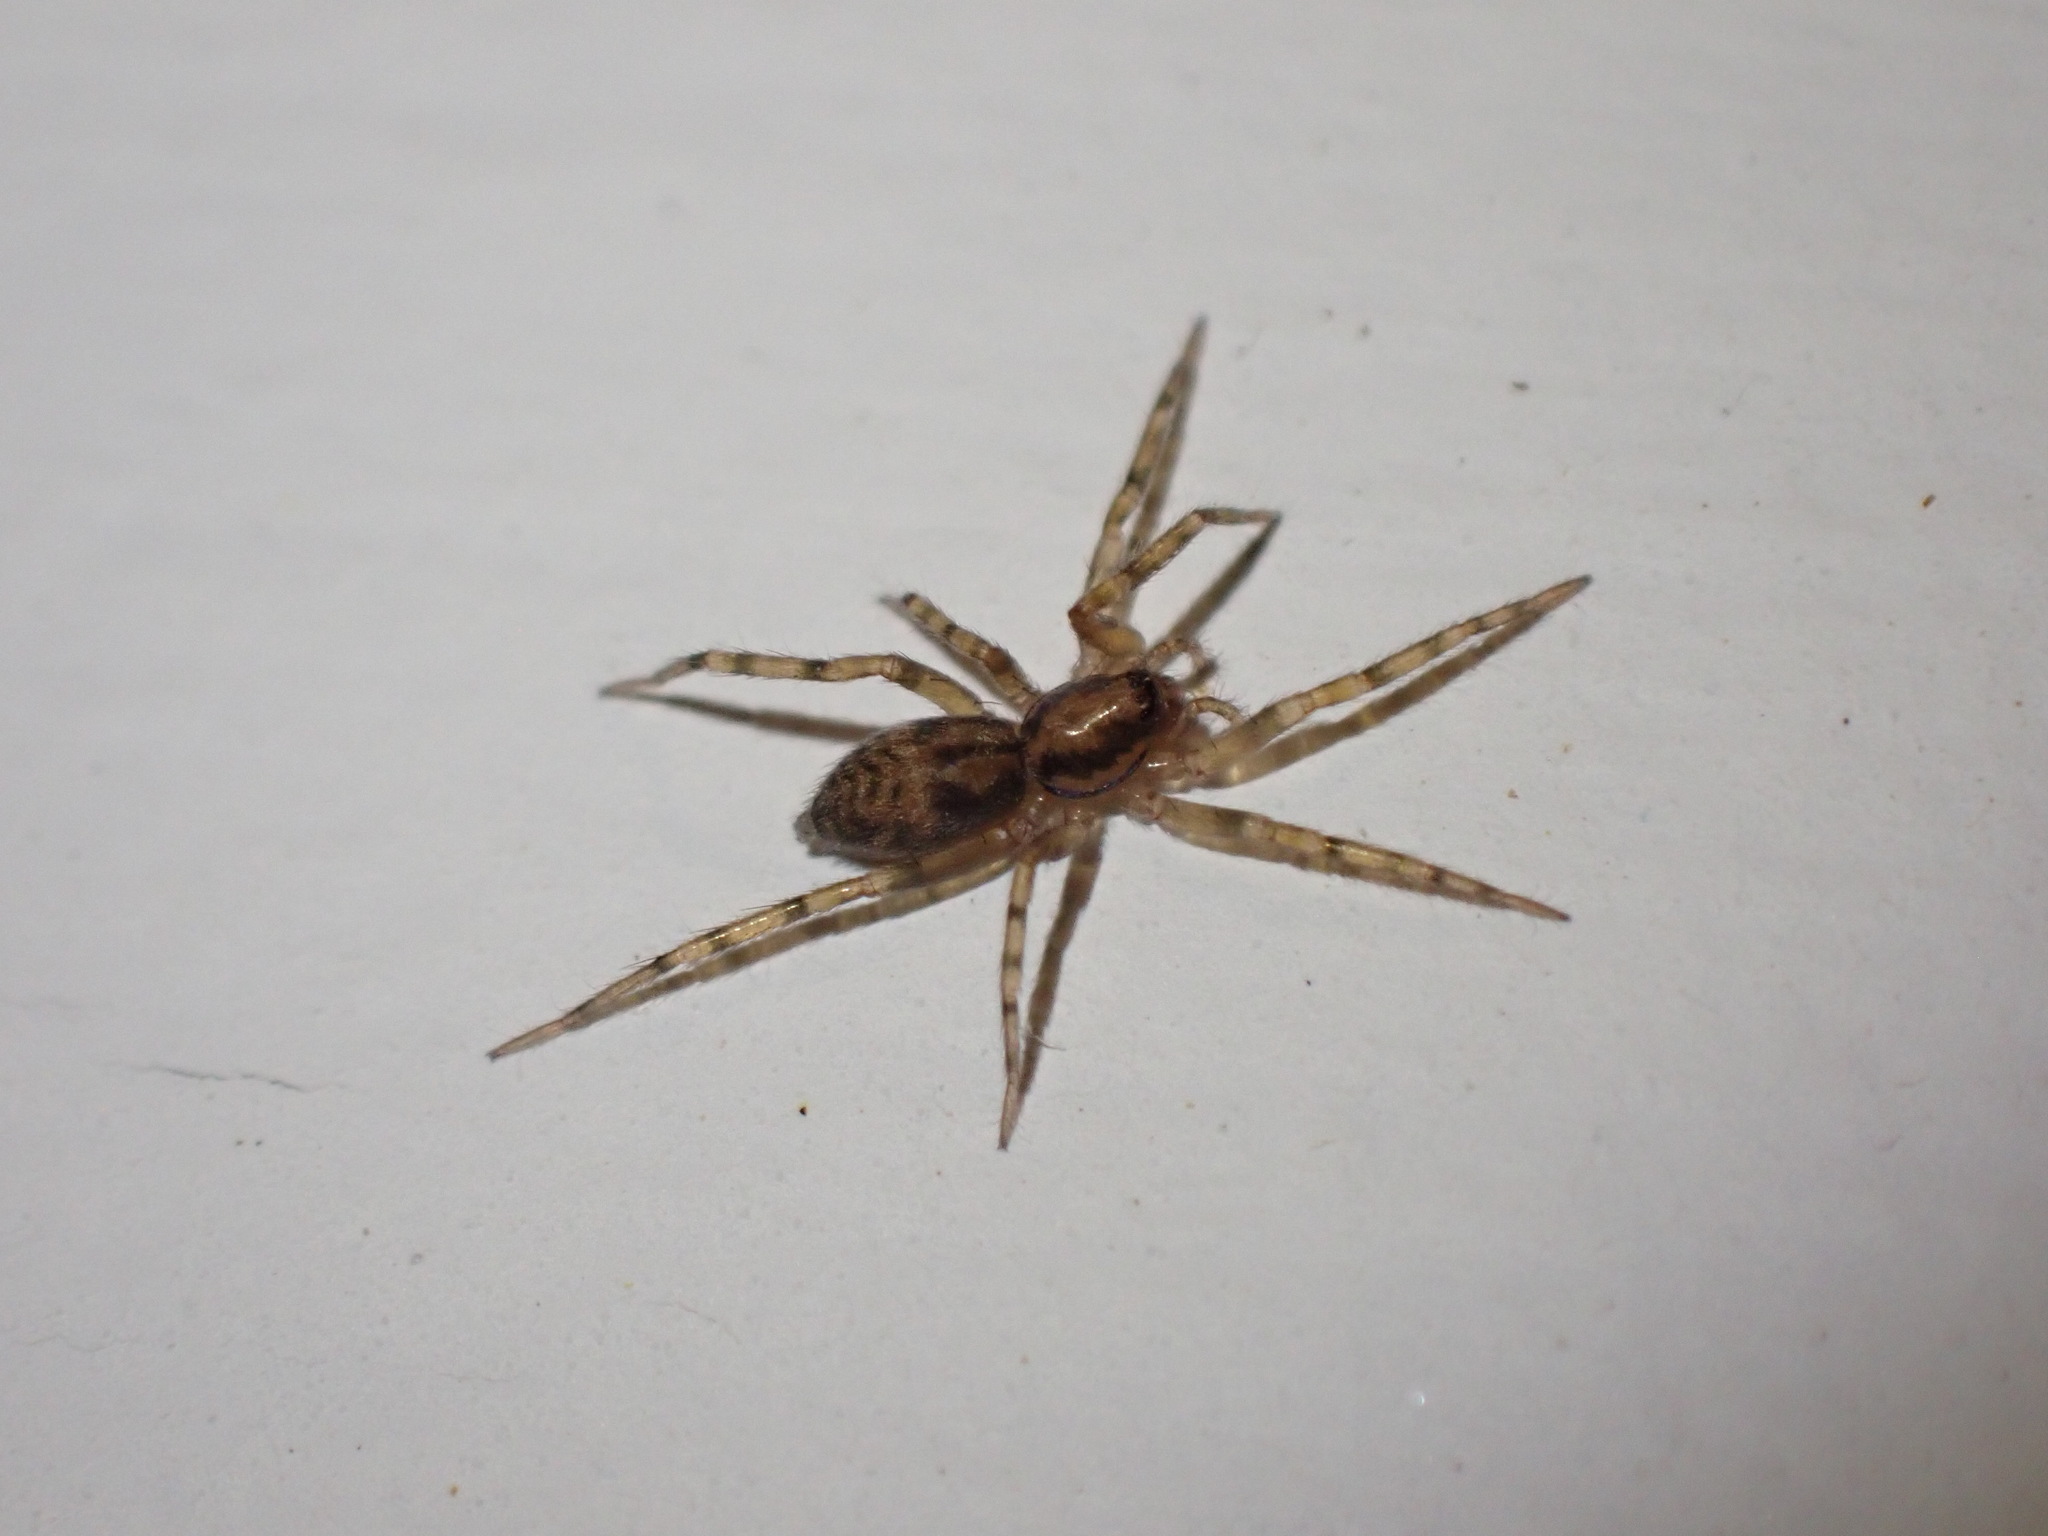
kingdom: Animalia
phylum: Arthropoda
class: Arachnida
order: Araneae
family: Liocranidae
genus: Liocranum
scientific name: Liocranum rupicola
